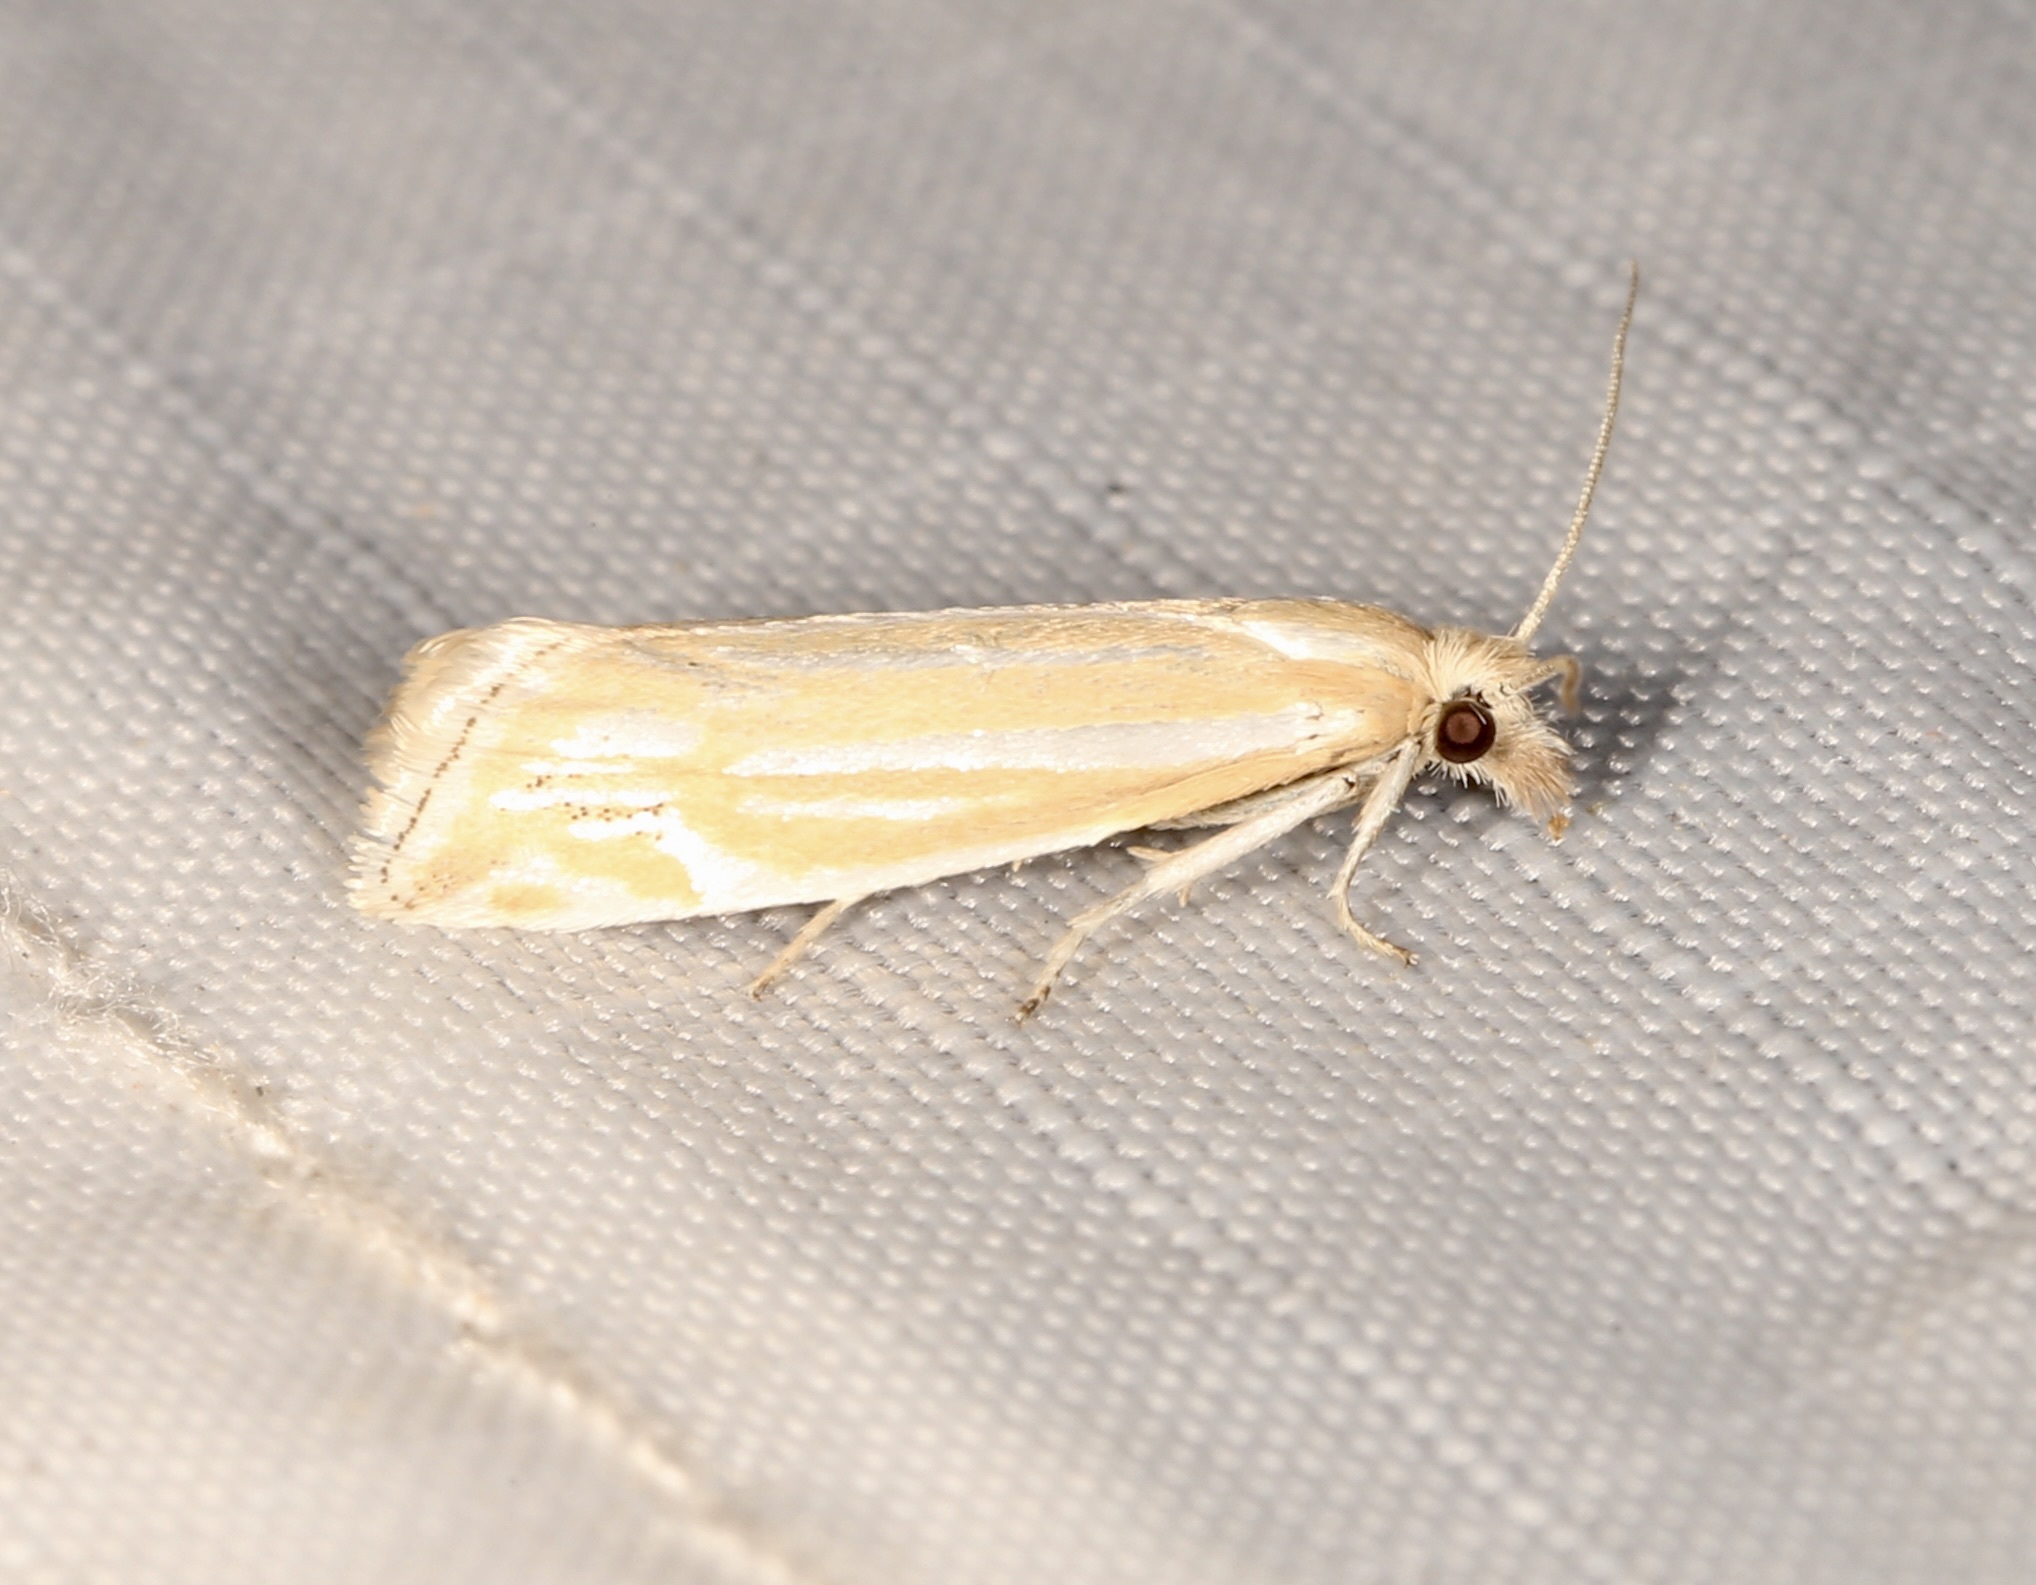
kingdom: Animalia
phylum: Arthropoda
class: Insecta
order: Lepidoptera
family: Tortricidae
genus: Pelochrista
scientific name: Pelochrista argenteana
